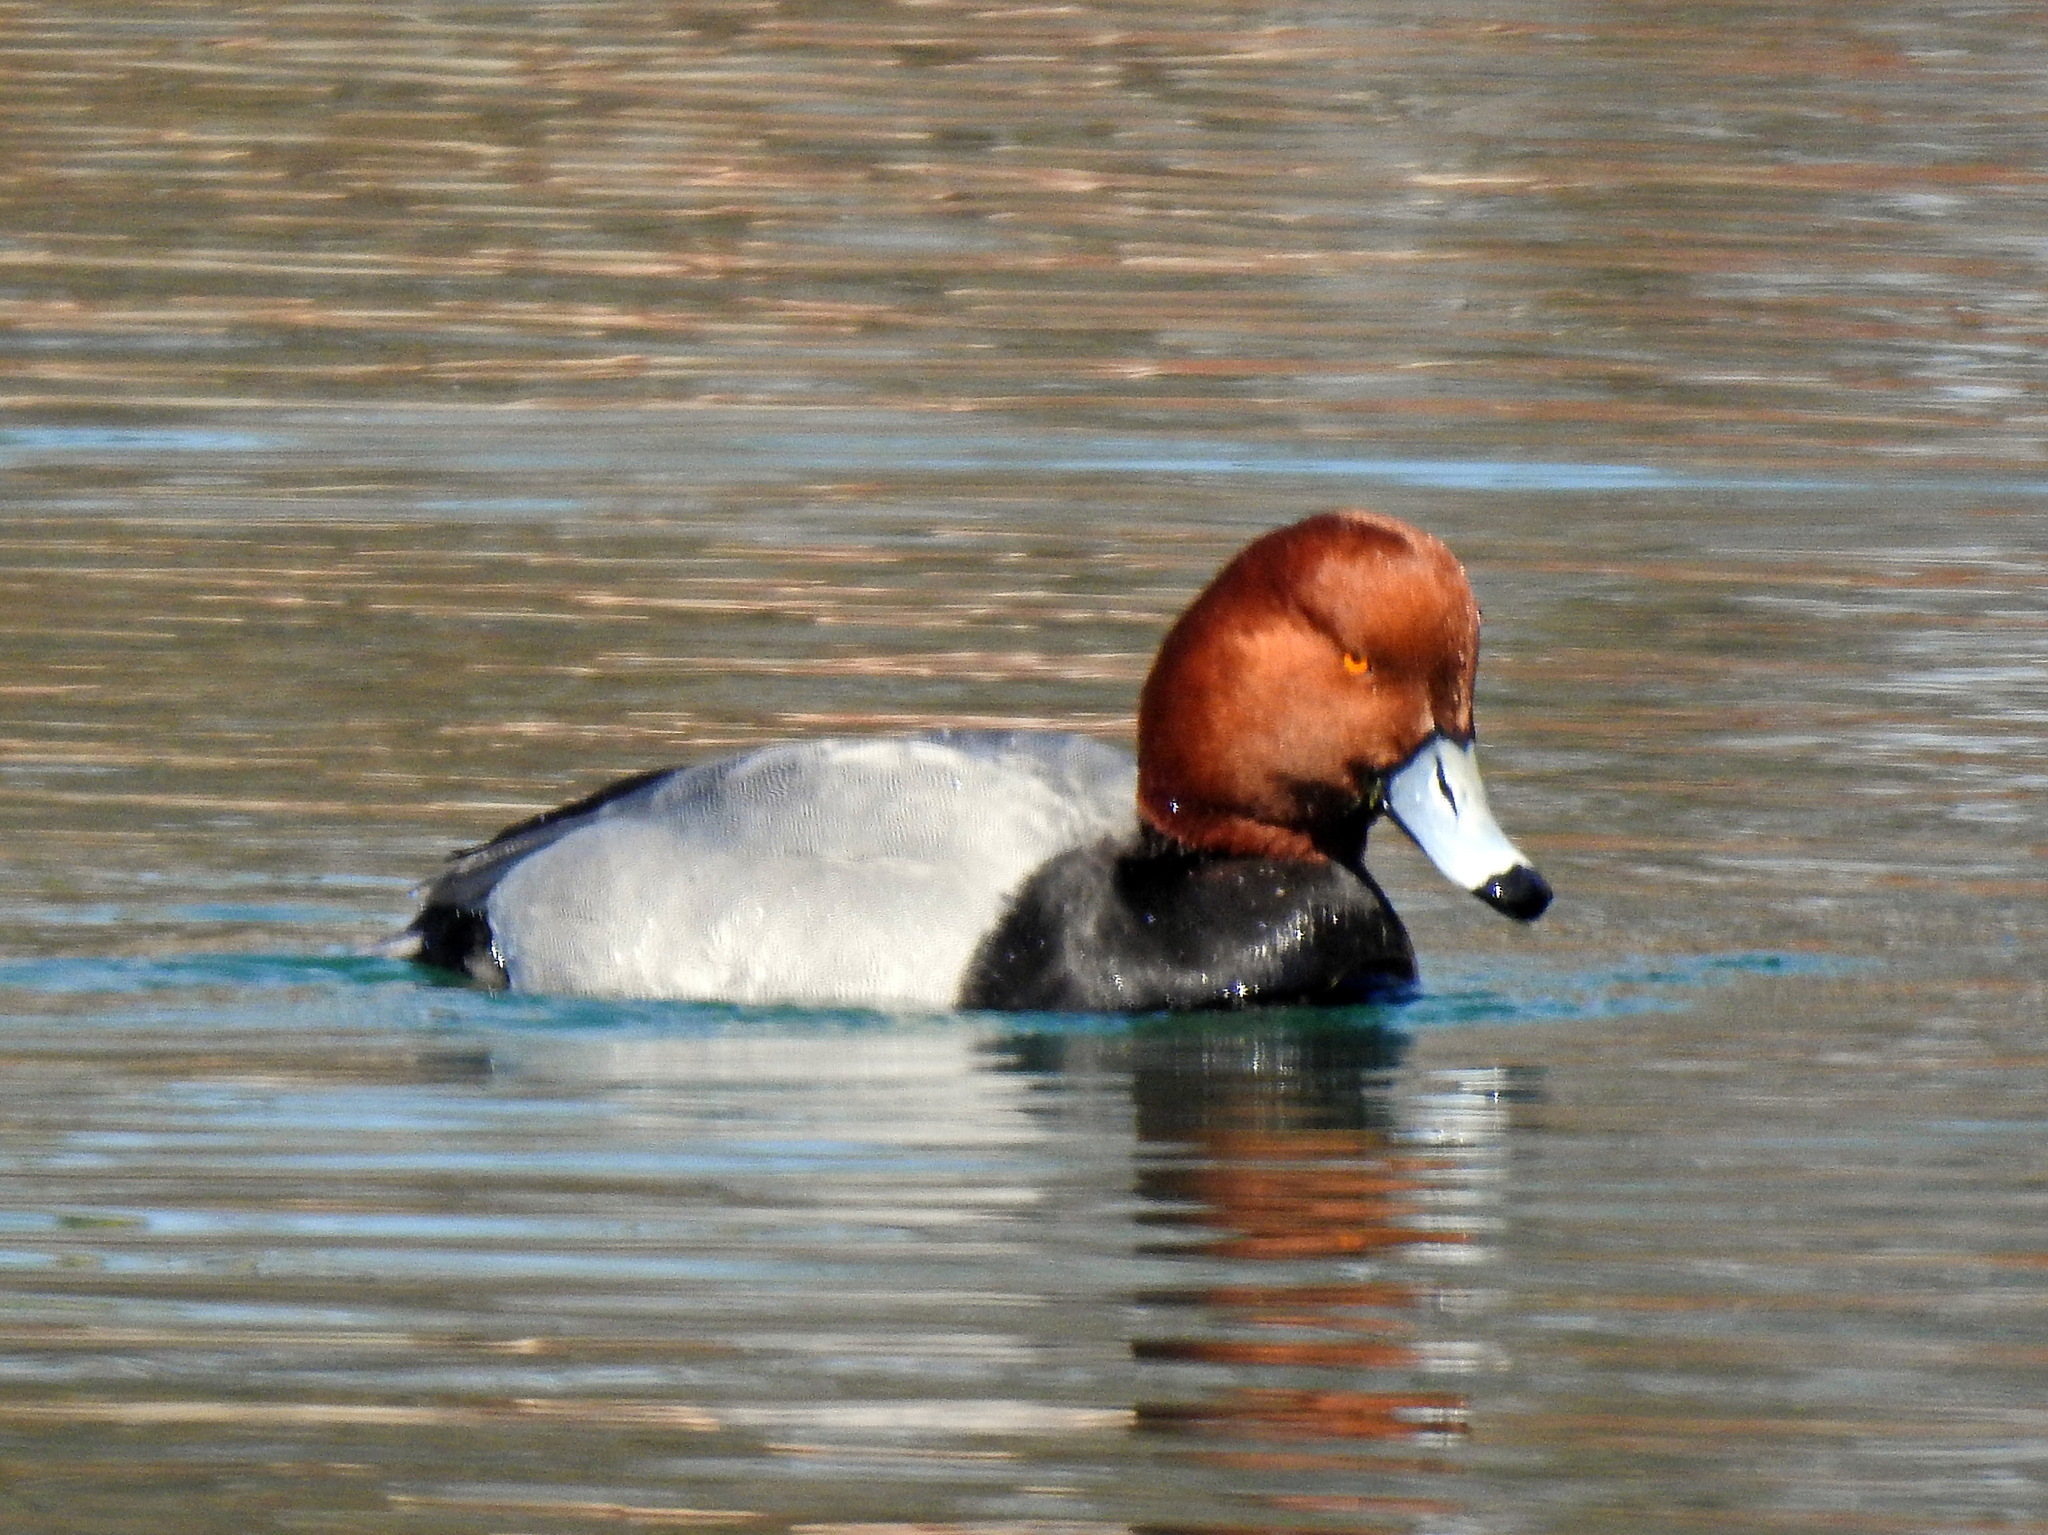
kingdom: Animalia
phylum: Chordata
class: Aves
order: Anseriformes
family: Anatidae
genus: Aythya
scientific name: Aythya americana
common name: Redhead
